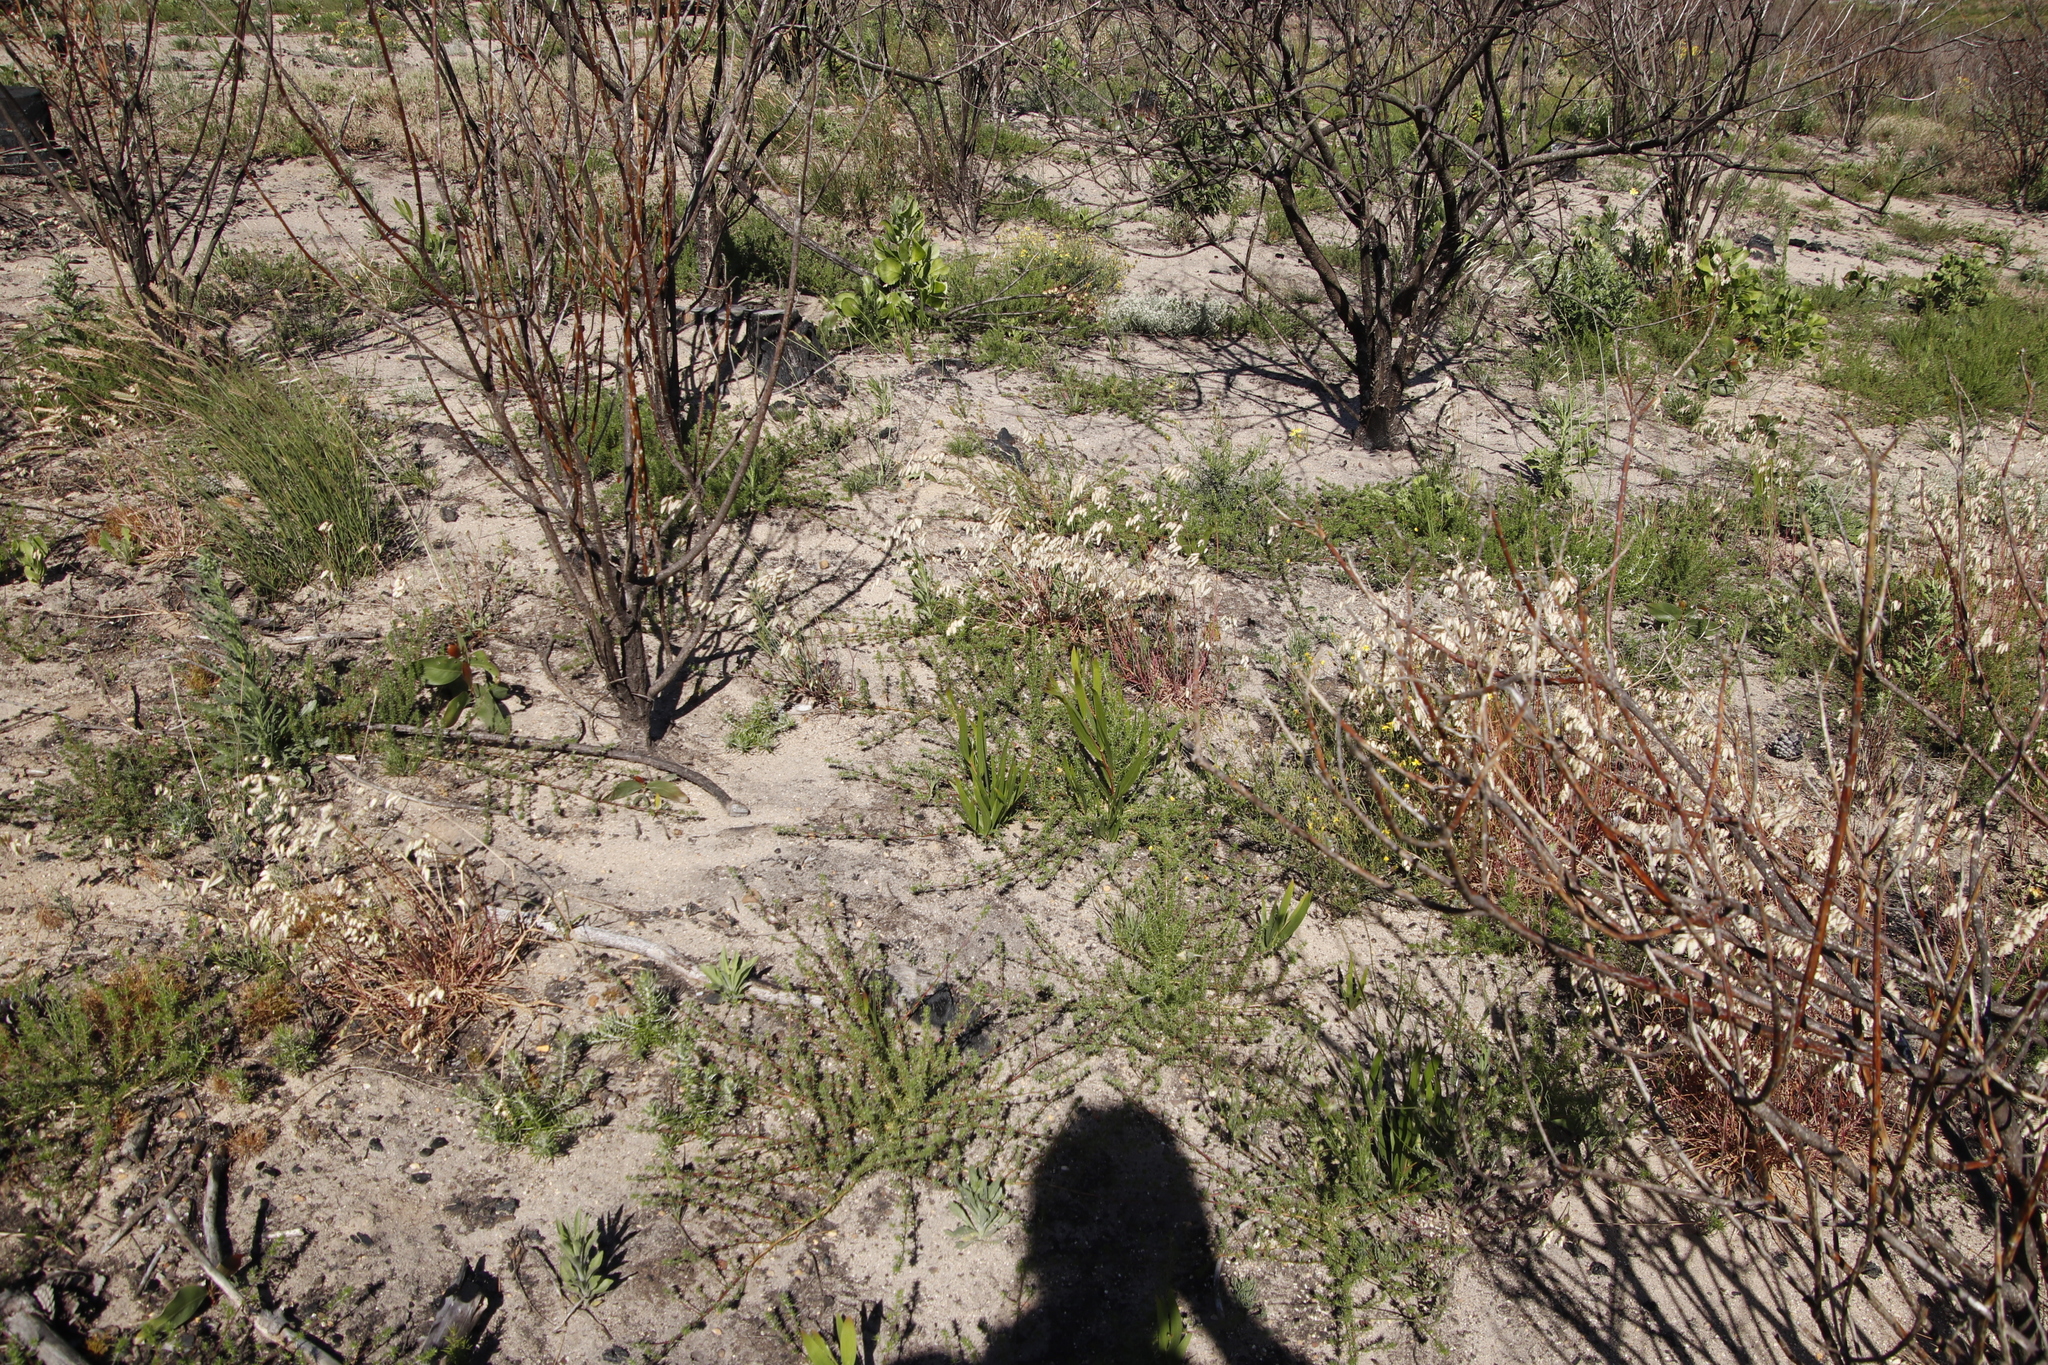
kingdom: Plantae
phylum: Tracheophyta
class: Liliopsida
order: Poales
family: Poaceae
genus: Briza
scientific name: Briza maxima
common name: Big quakinggrass
